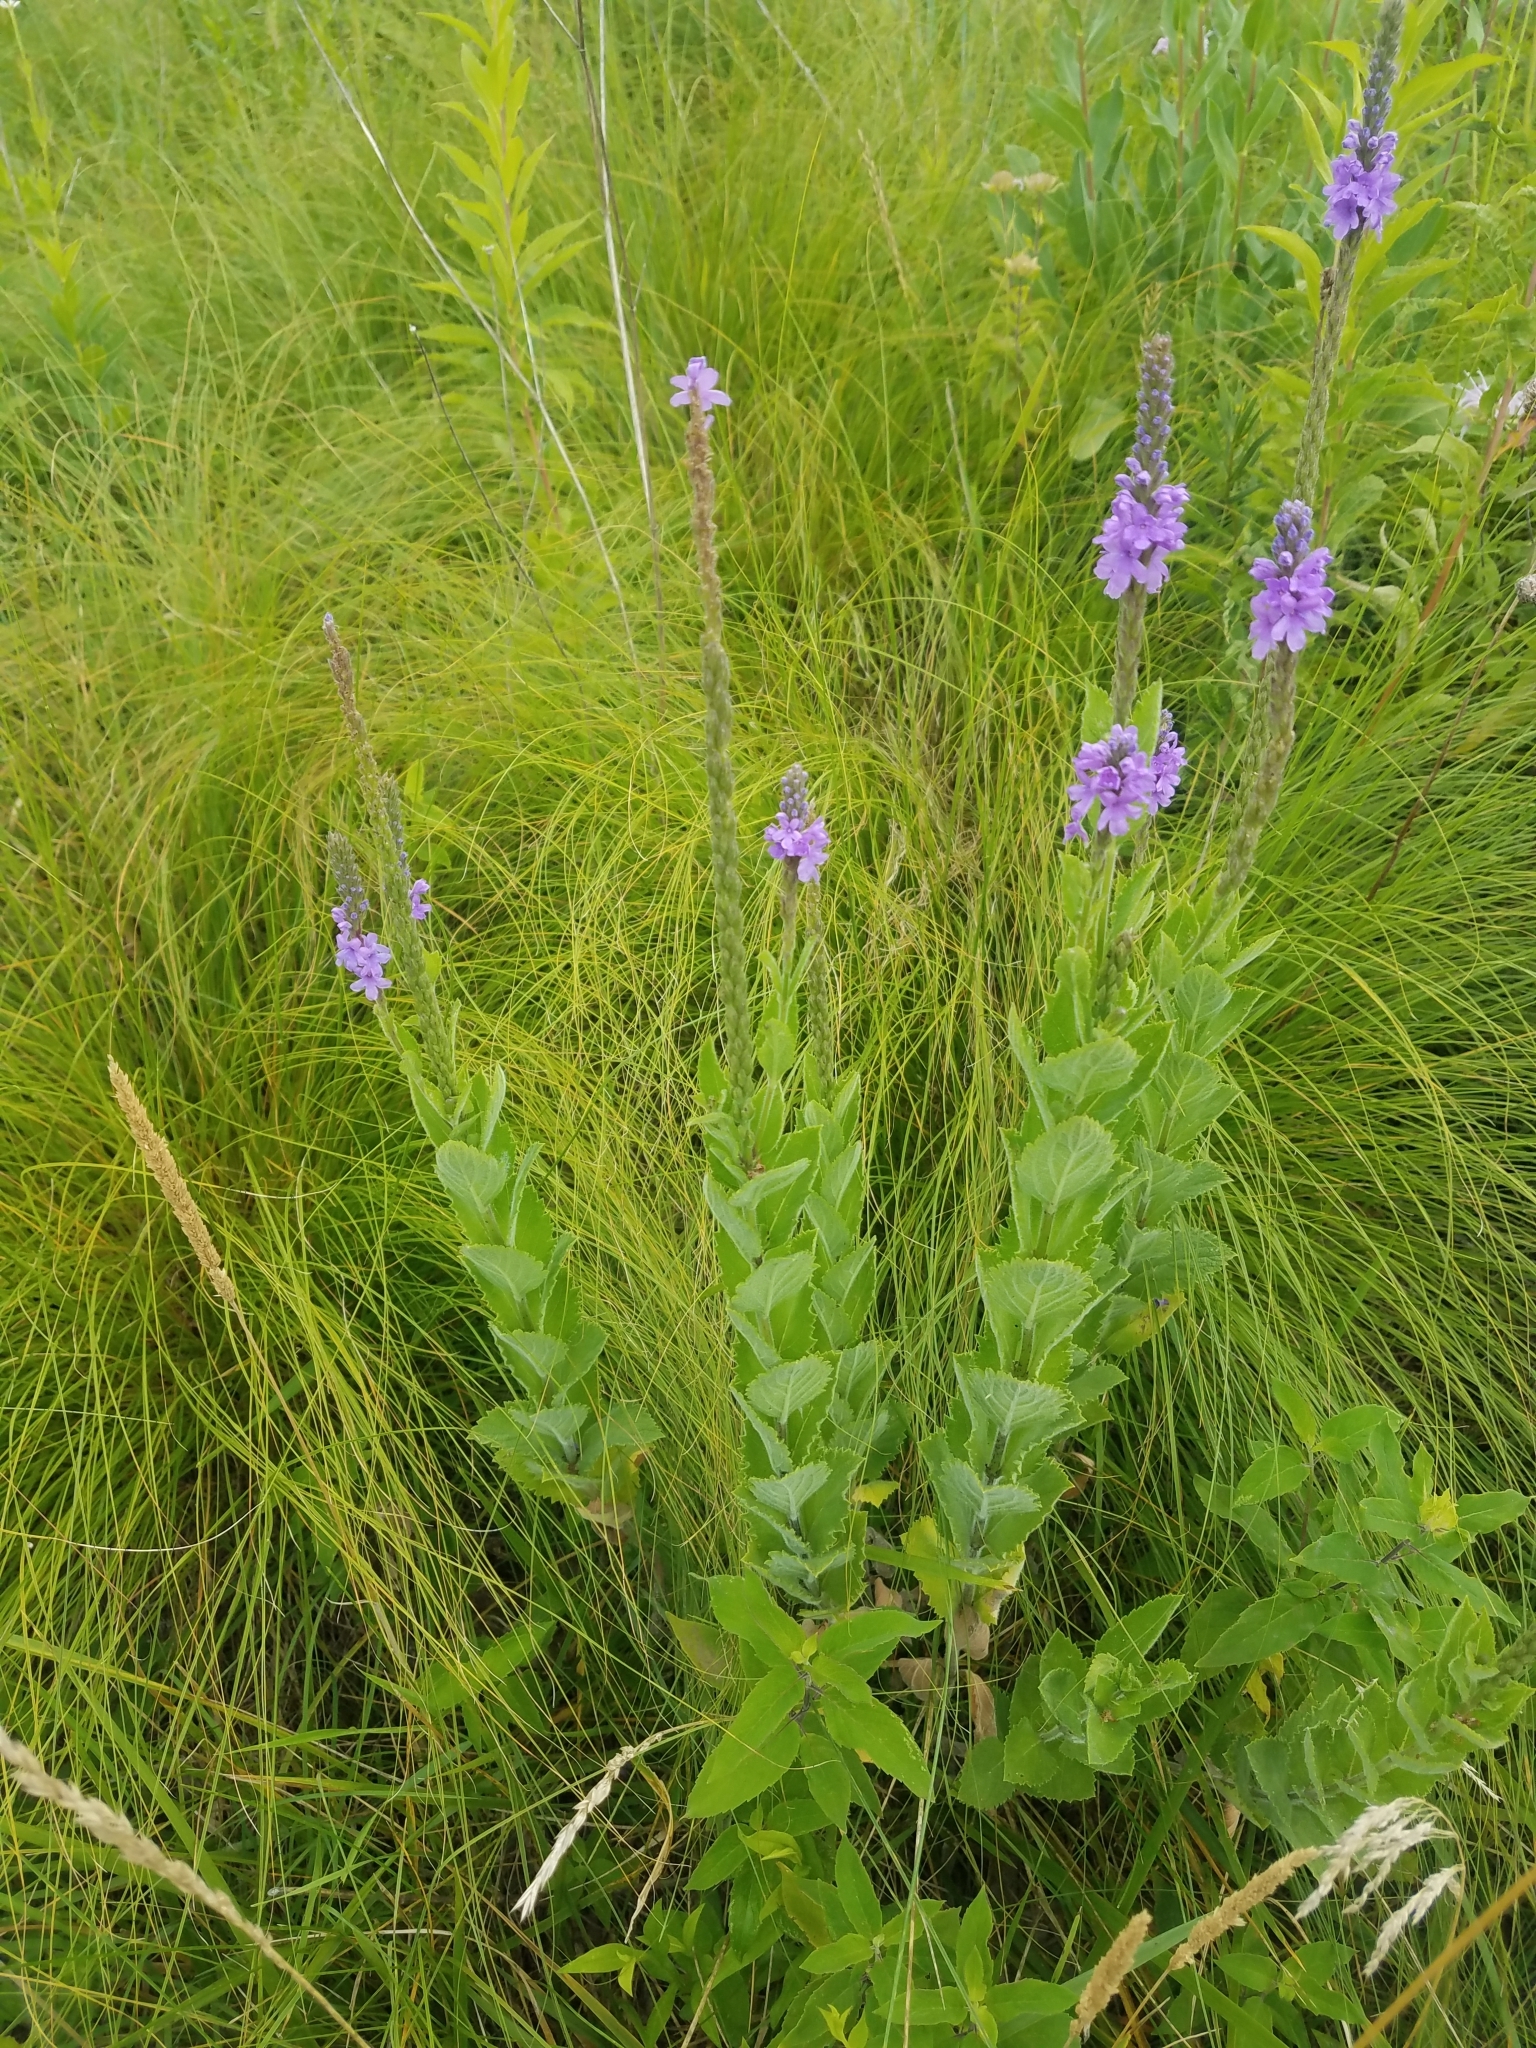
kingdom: Plantae
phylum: Tracheophyta
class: Magnoliopsida
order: Lamiales
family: Verbenaceae
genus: Verbena
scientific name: Verbena stricta
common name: Hoary vervain
